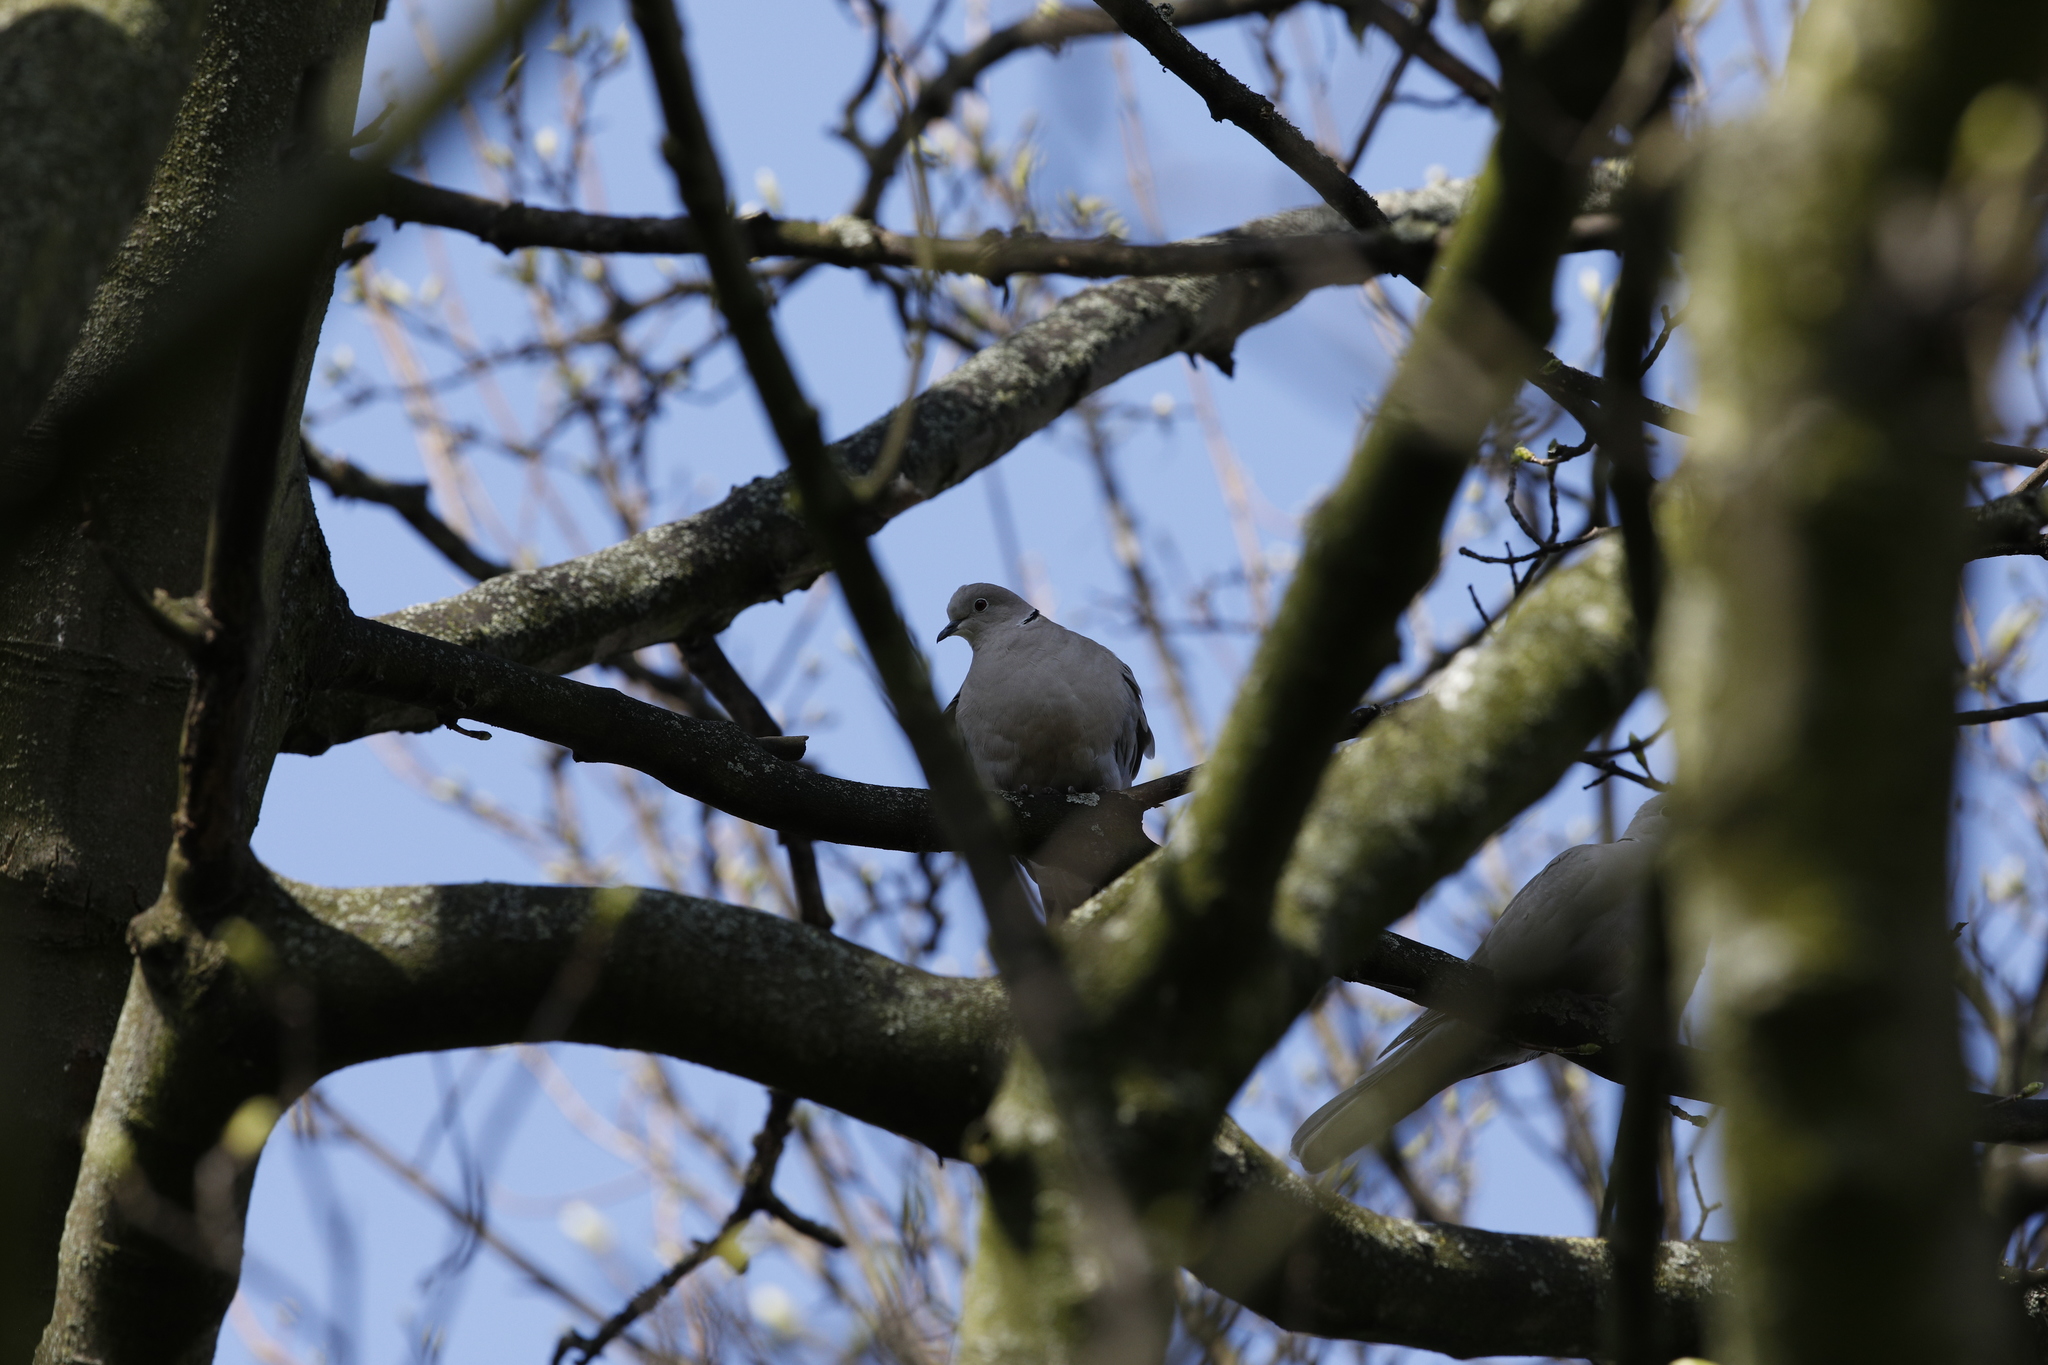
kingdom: Animalia
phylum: Chordata
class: Aves
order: Columbiformes
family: Columbidae
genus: Streptopelia
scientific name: Streptopelia decaocto
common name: Eurasian collared dove
